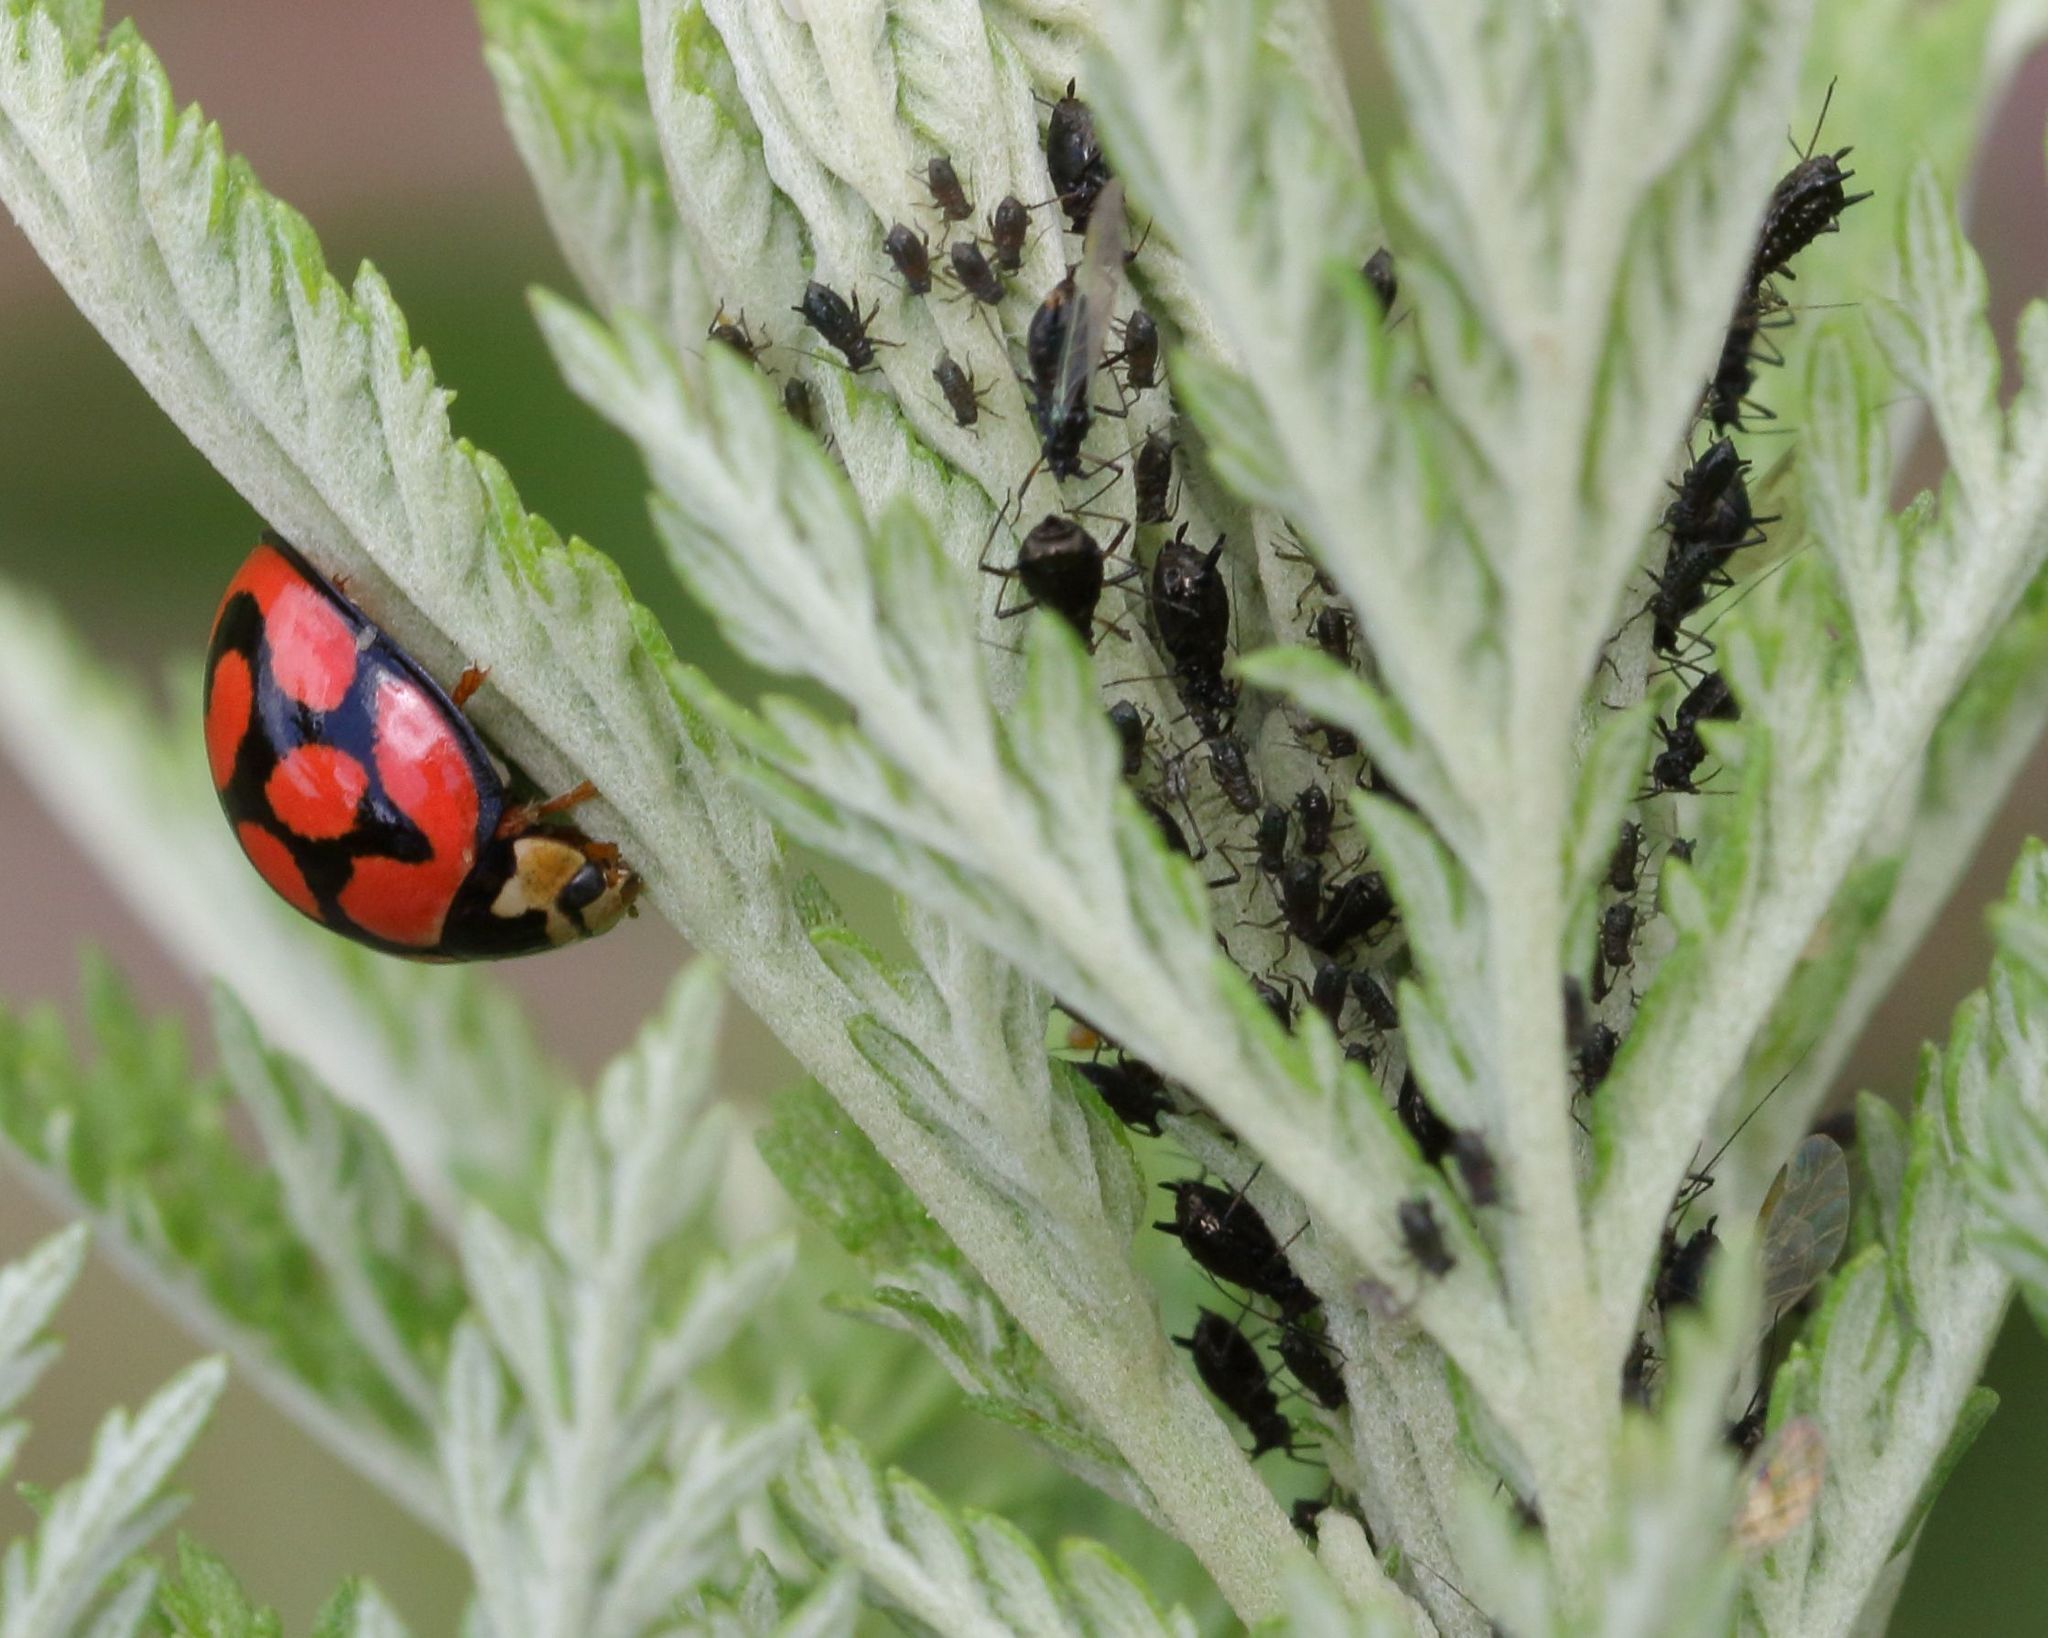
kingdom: Animalia
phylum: Arthropoda
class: Insecta
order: Coleoptera
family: Coccinellidae
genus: Cheilomenes
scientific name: Cheilomenes lunata
